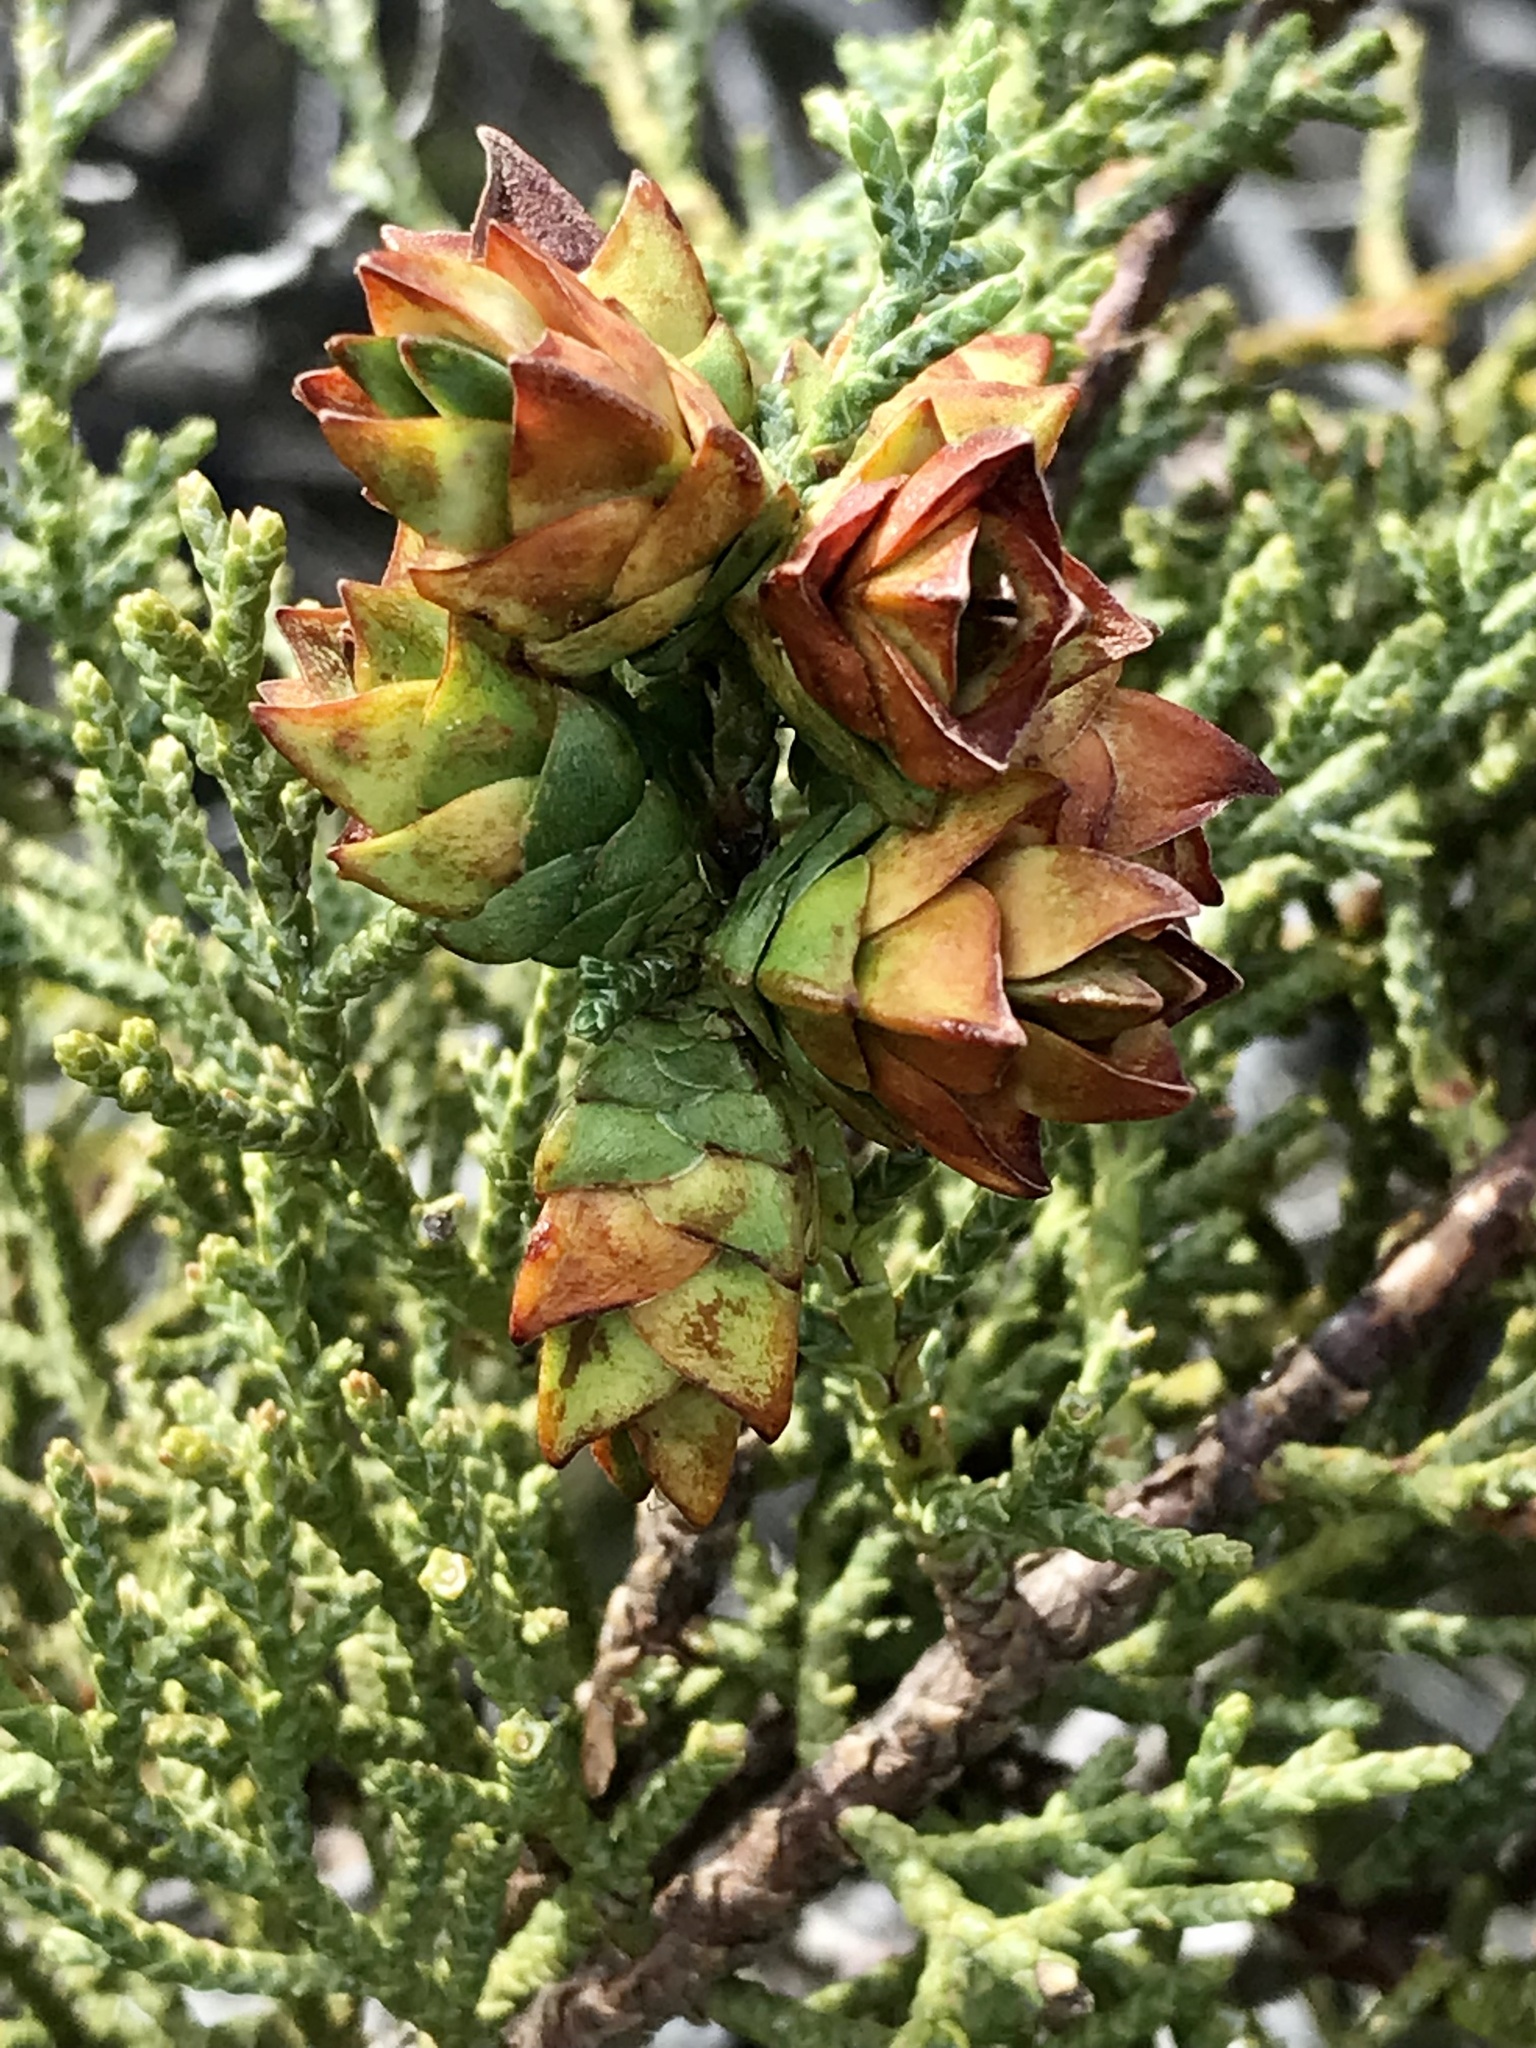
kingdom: Animalia
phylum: Arthropoda
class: Insecta
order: Diptera
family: Cecidomyiidae
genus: Oligotrophus
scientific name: Oligotrophus cupressi
